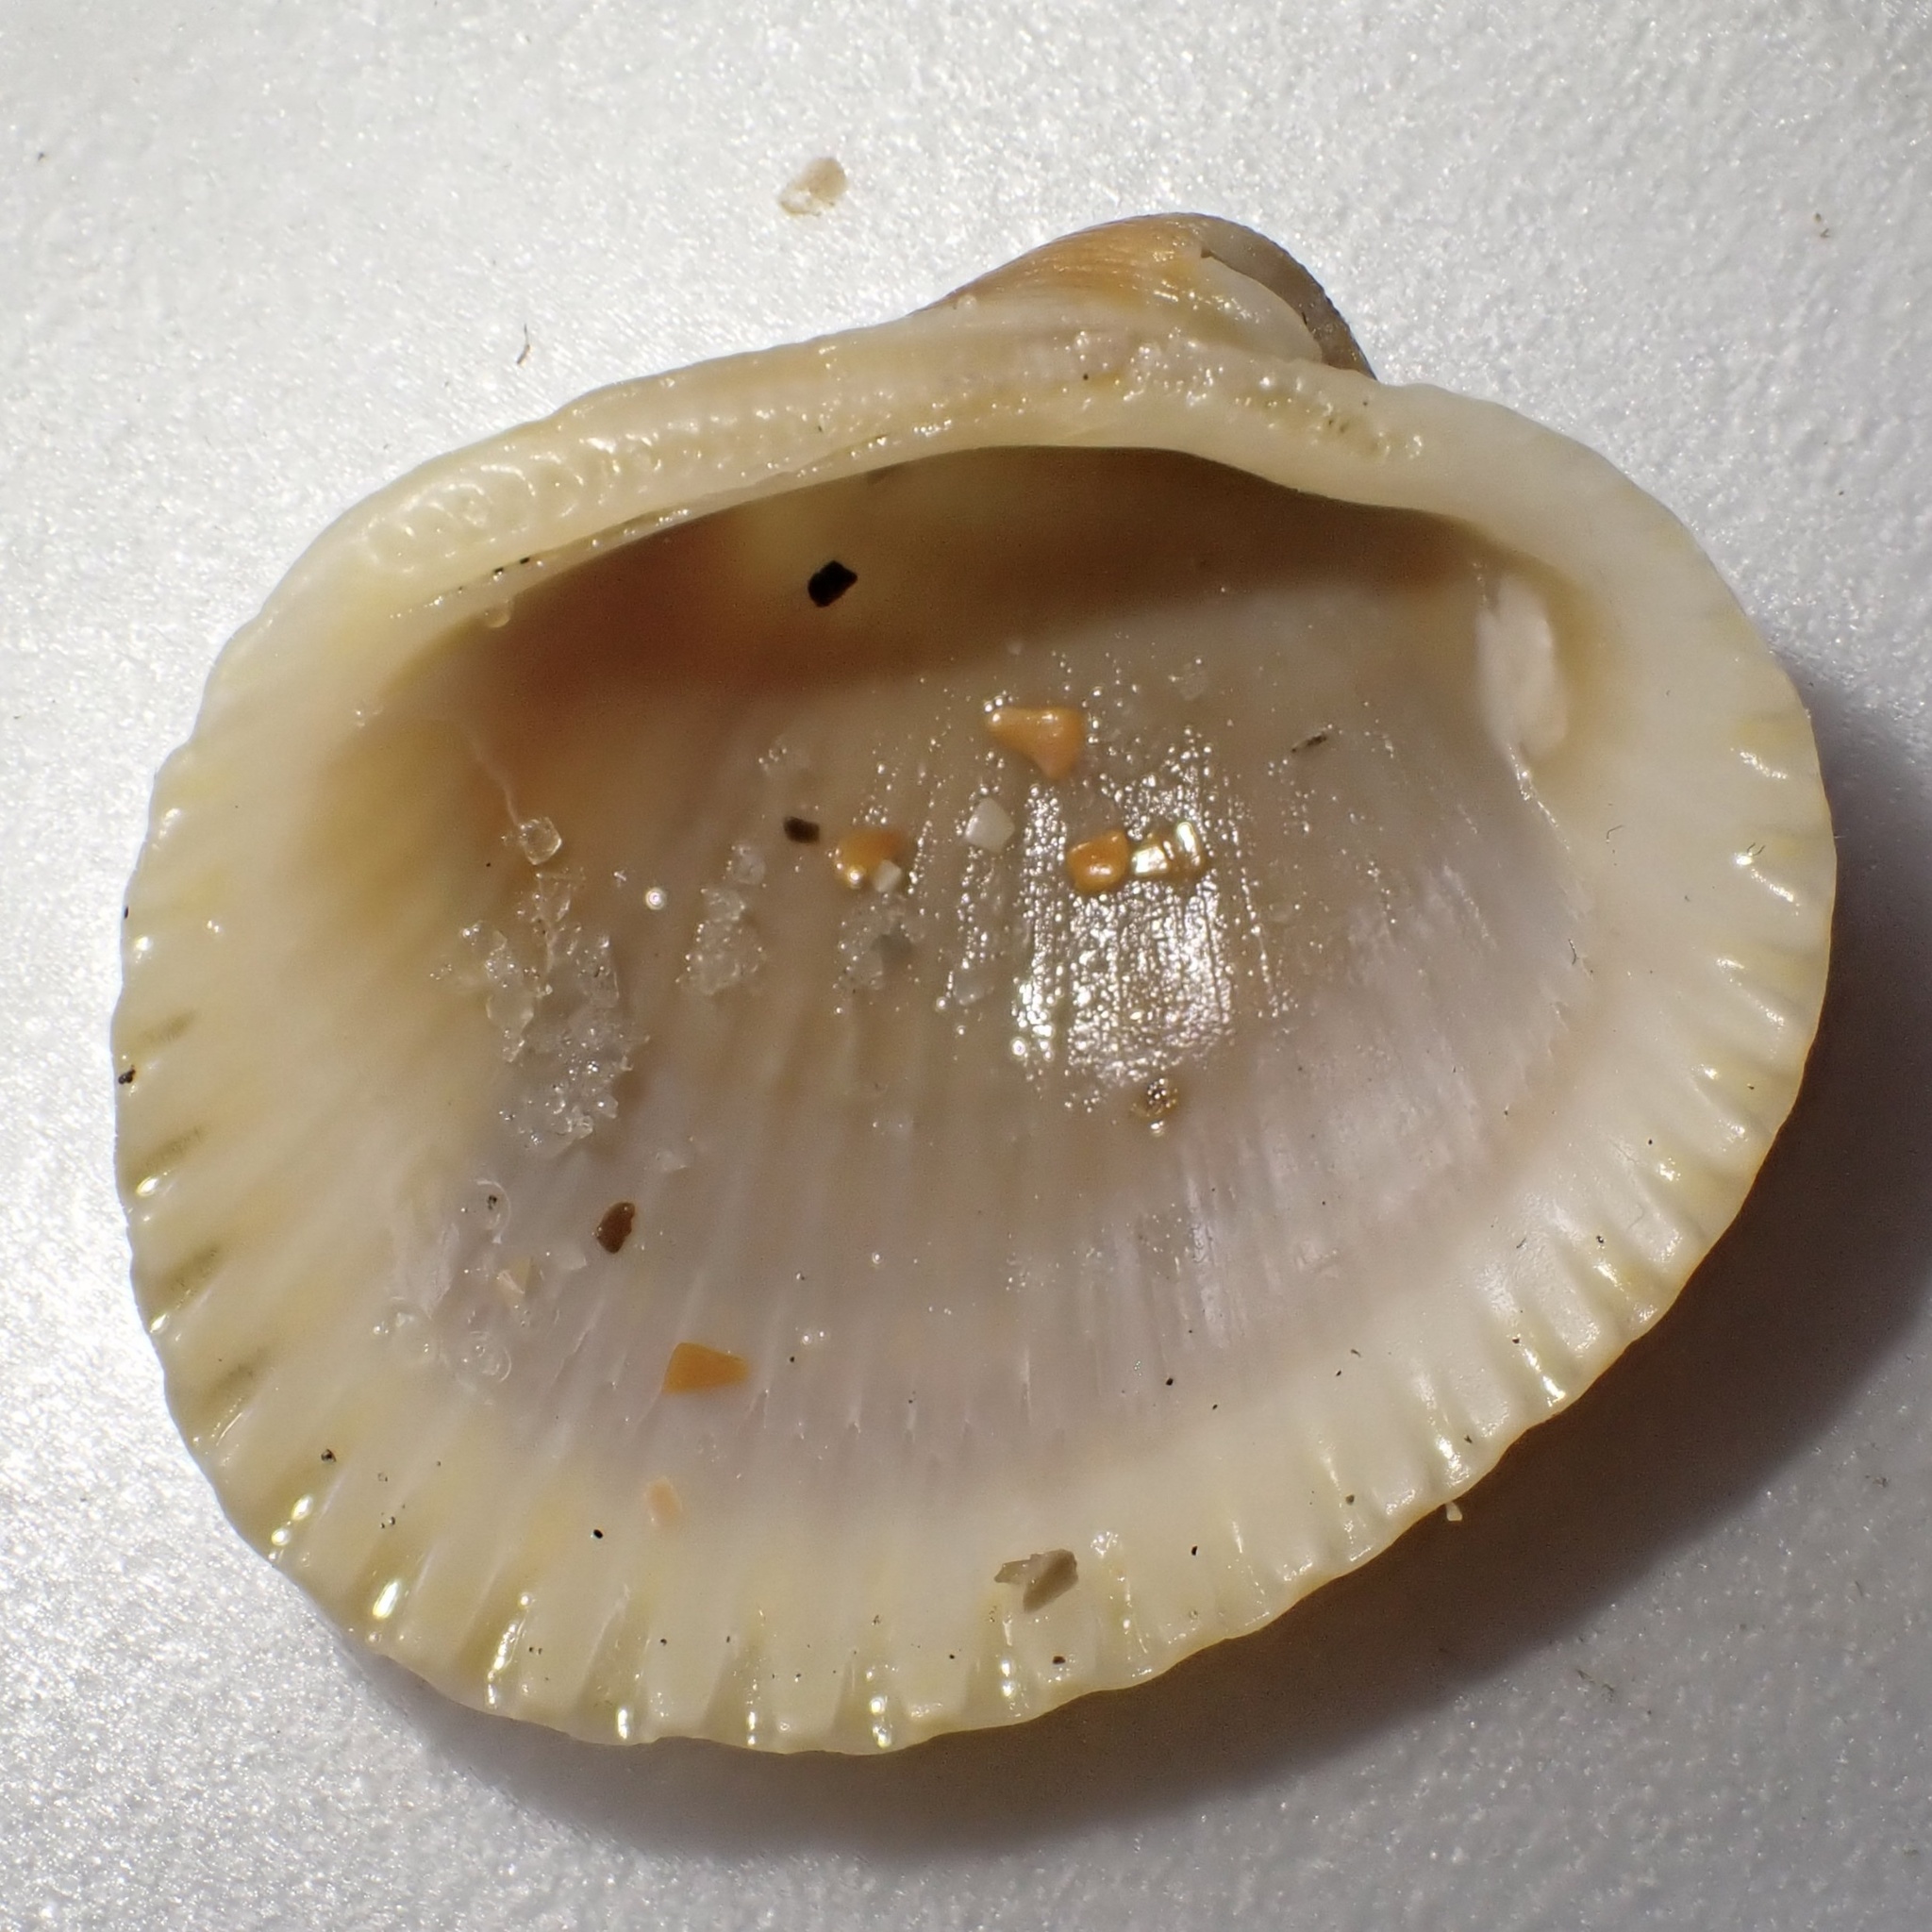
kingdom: Animalia
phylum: Mollusca
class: Bivalvia
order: Arcida
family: Arcidae
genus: Lunarca
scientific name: Lunarca ovalis
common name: Blood ark
